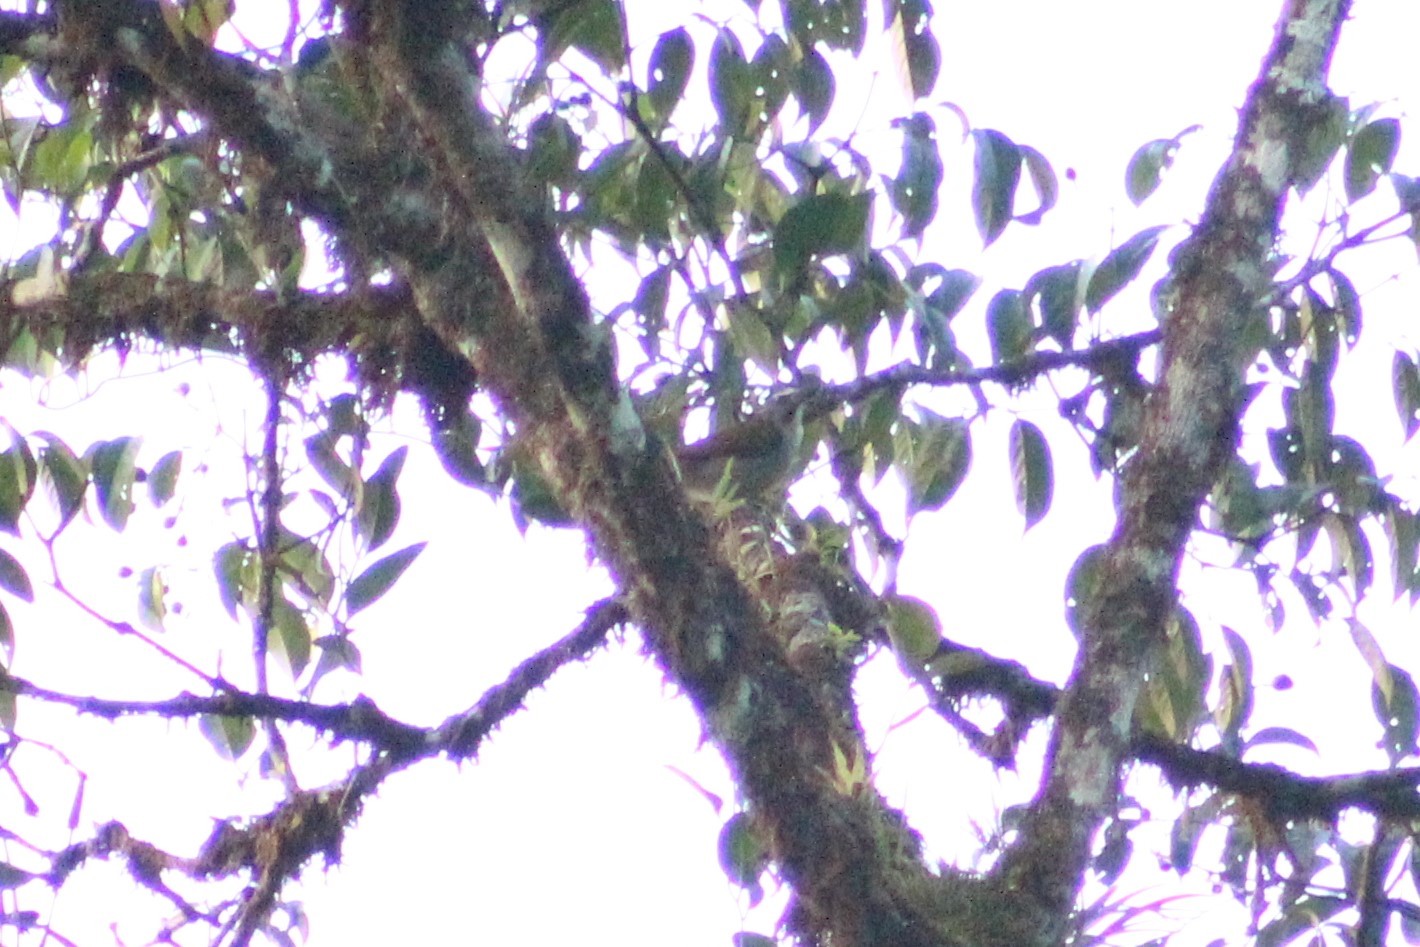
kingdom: Animalia
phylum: Chordata
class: Aves
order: Passeriformes
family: Thraupidae
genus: Saltator
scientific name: Saltator maximus
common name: Buff-throated saltator
